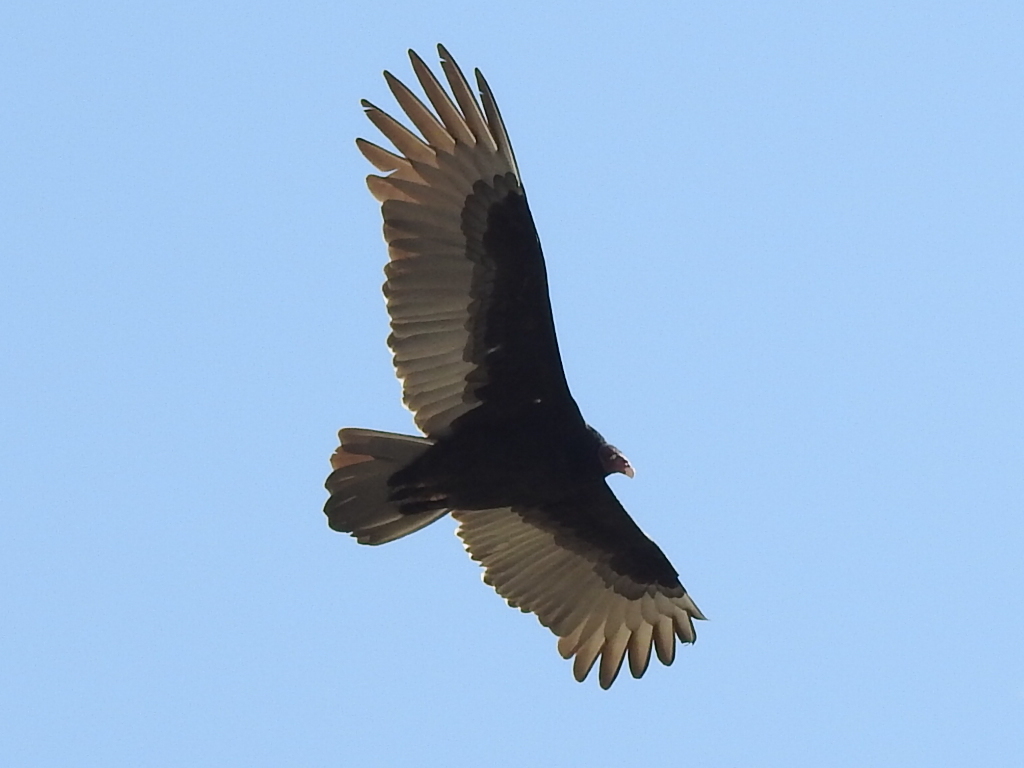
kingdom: Animalia
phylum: Chordata
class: Aves
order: Accipitriformes
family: Cathartidae
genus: Cathartes
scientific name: Cathartes aura
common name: Turkey vulture
